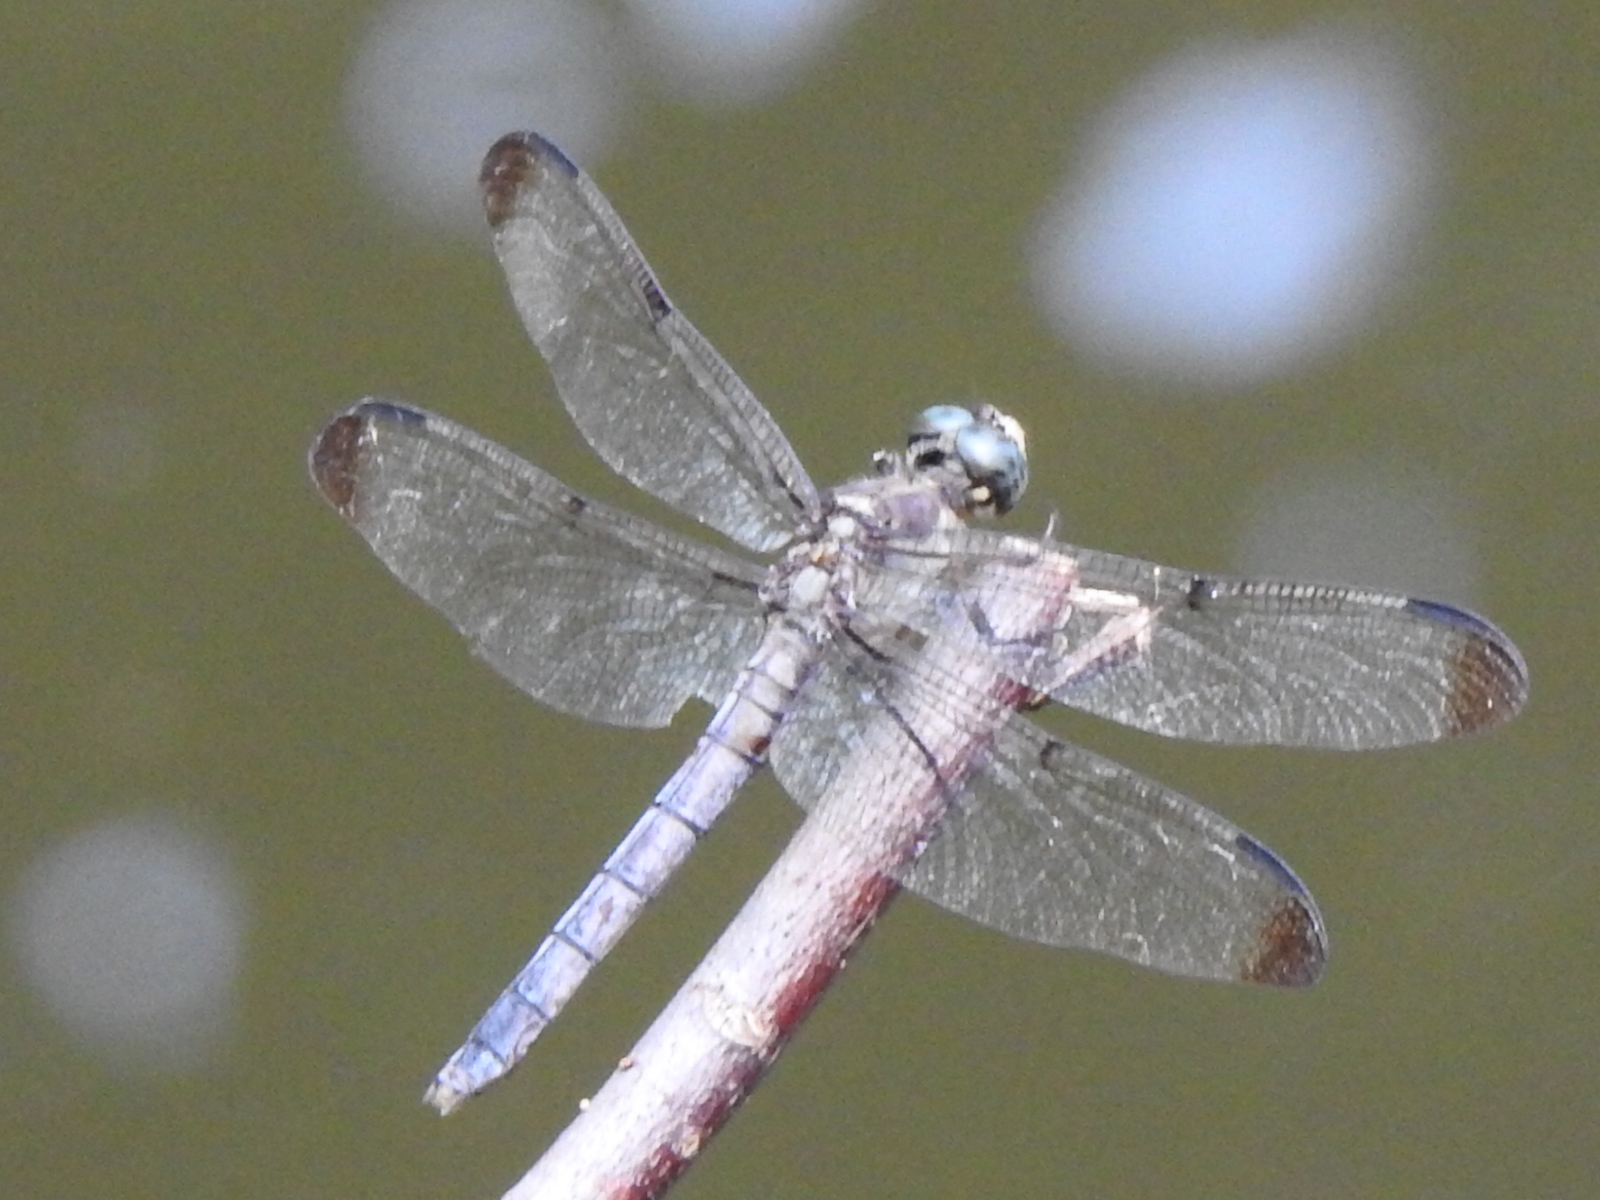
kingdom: Animalia
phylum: Arthropoda
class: Insecta
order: Odonata
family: Libellulidae
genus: Libellula
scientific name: Libellula vibrans
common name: Great blue skimmer
